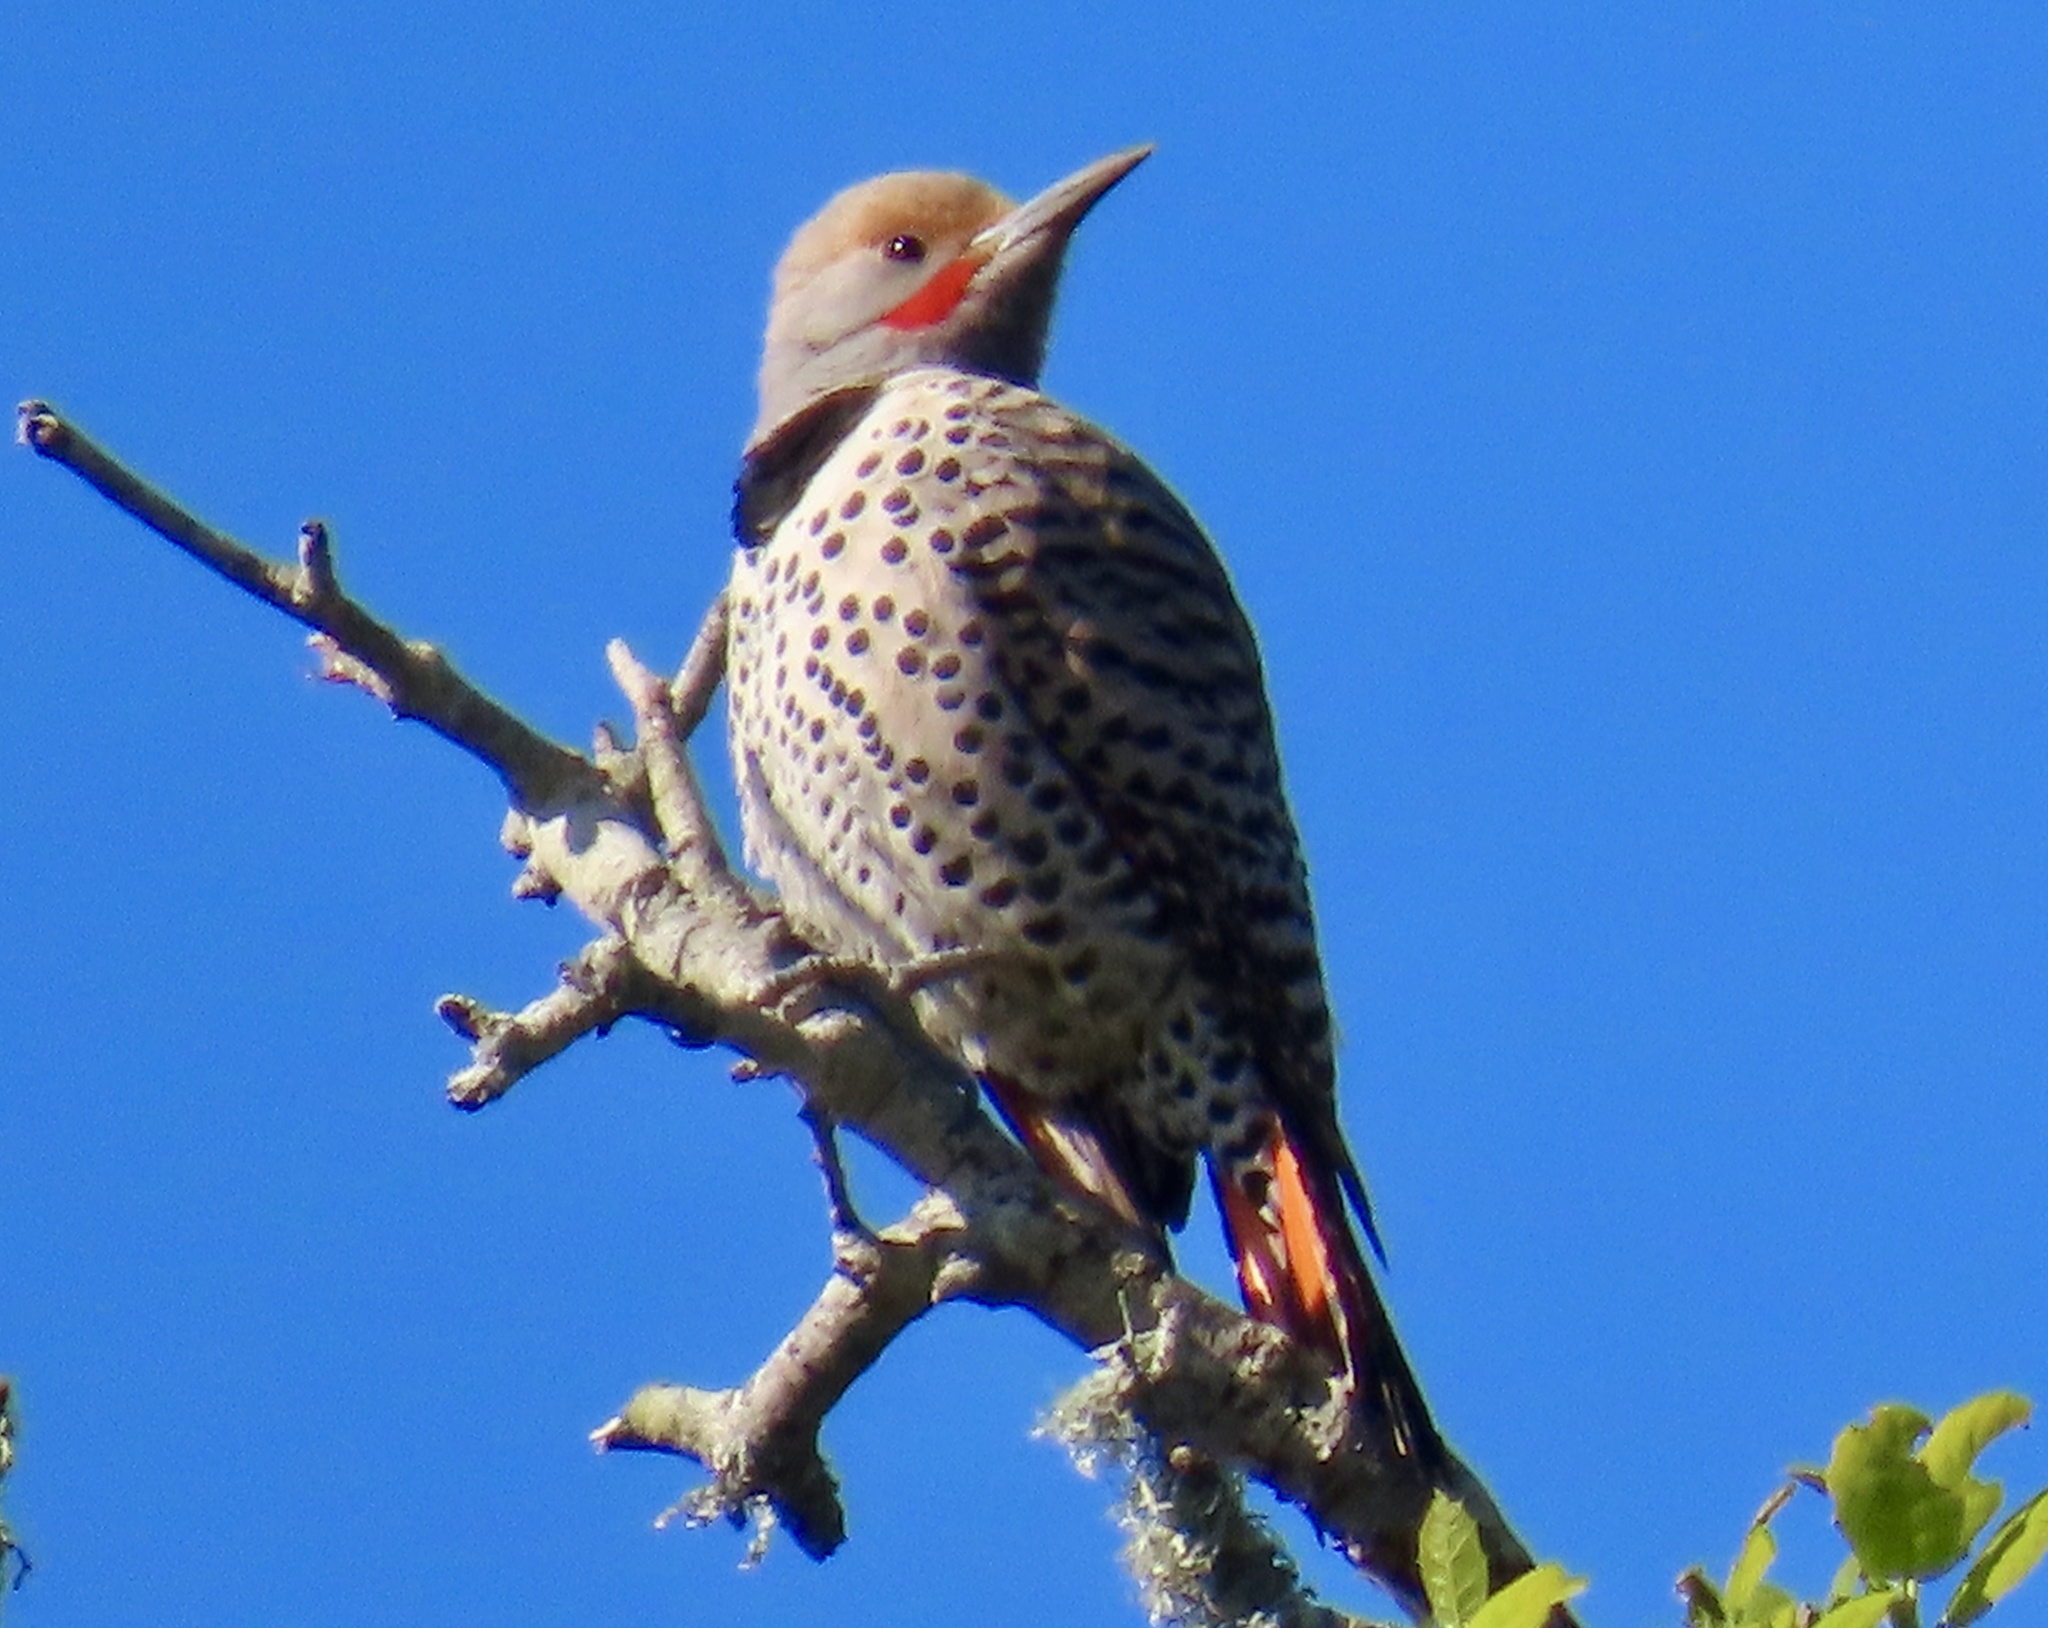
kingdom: Animalia
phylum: Chordata
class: Aves
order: Piciformes
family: Picidae
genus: Colaptes
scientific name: Colaptes auratus
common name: Northern flicker
